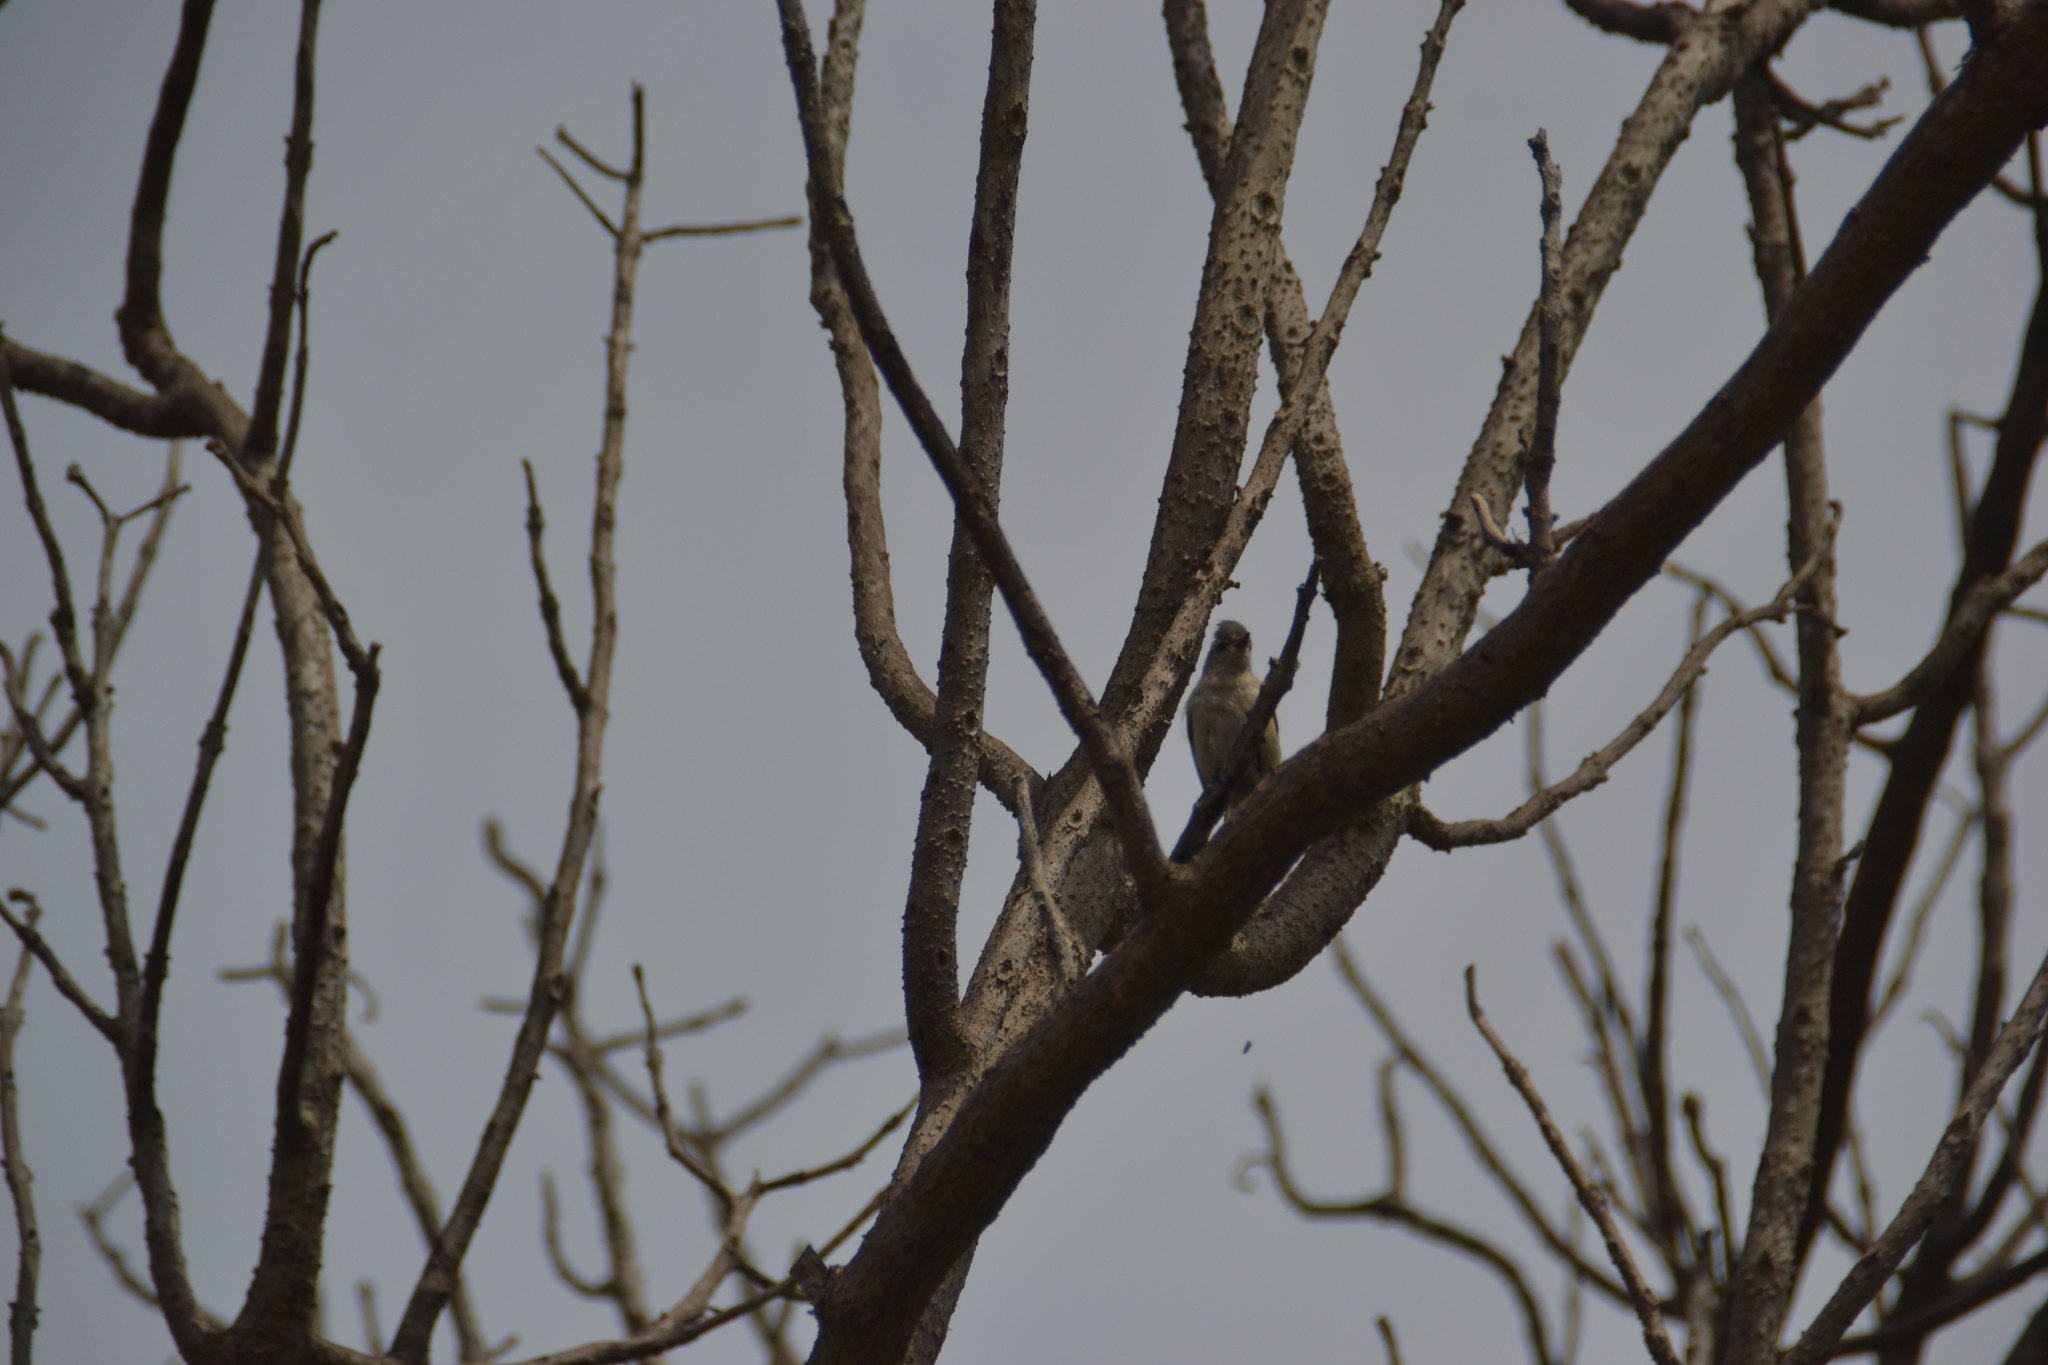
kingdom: Animalia
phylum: Chordata
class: Aves
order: Passeriformes
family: Tyrannidae
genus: Camptostoma
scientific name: Camptostoma obsoletum
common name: Southern beardless-tyrannulet
